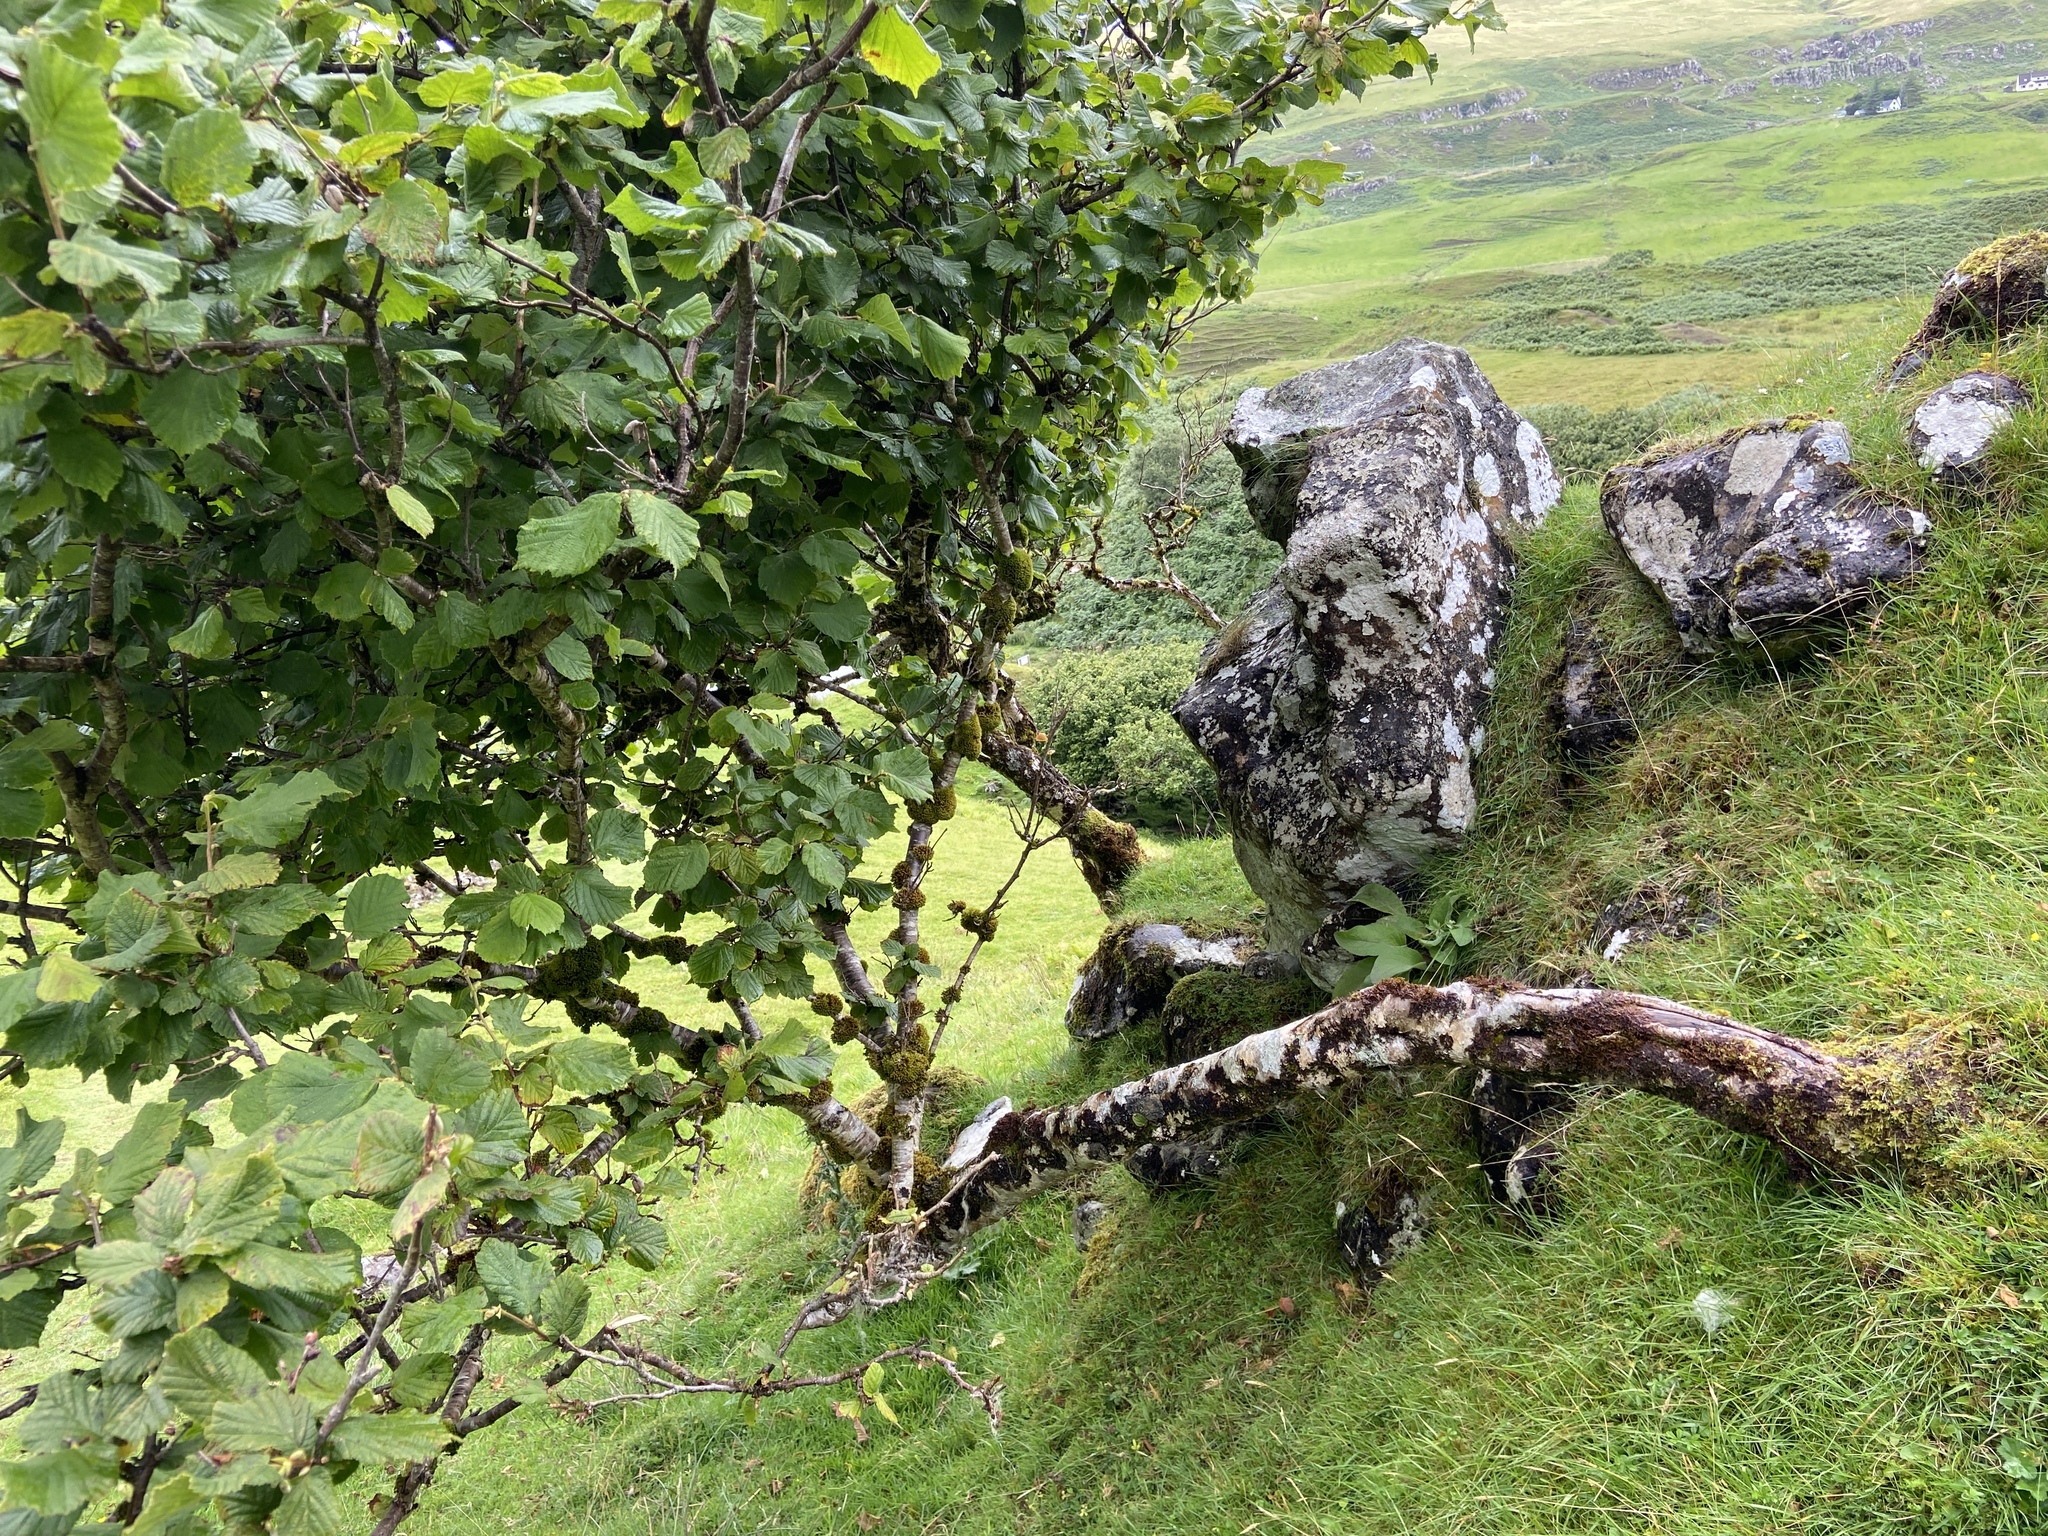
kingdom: Plantae
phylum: Tracheophyta
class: Magnoliopsida
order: Fagales
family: Betulaceae
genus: Corylus
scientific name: Corylus avellana
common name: European hazel
